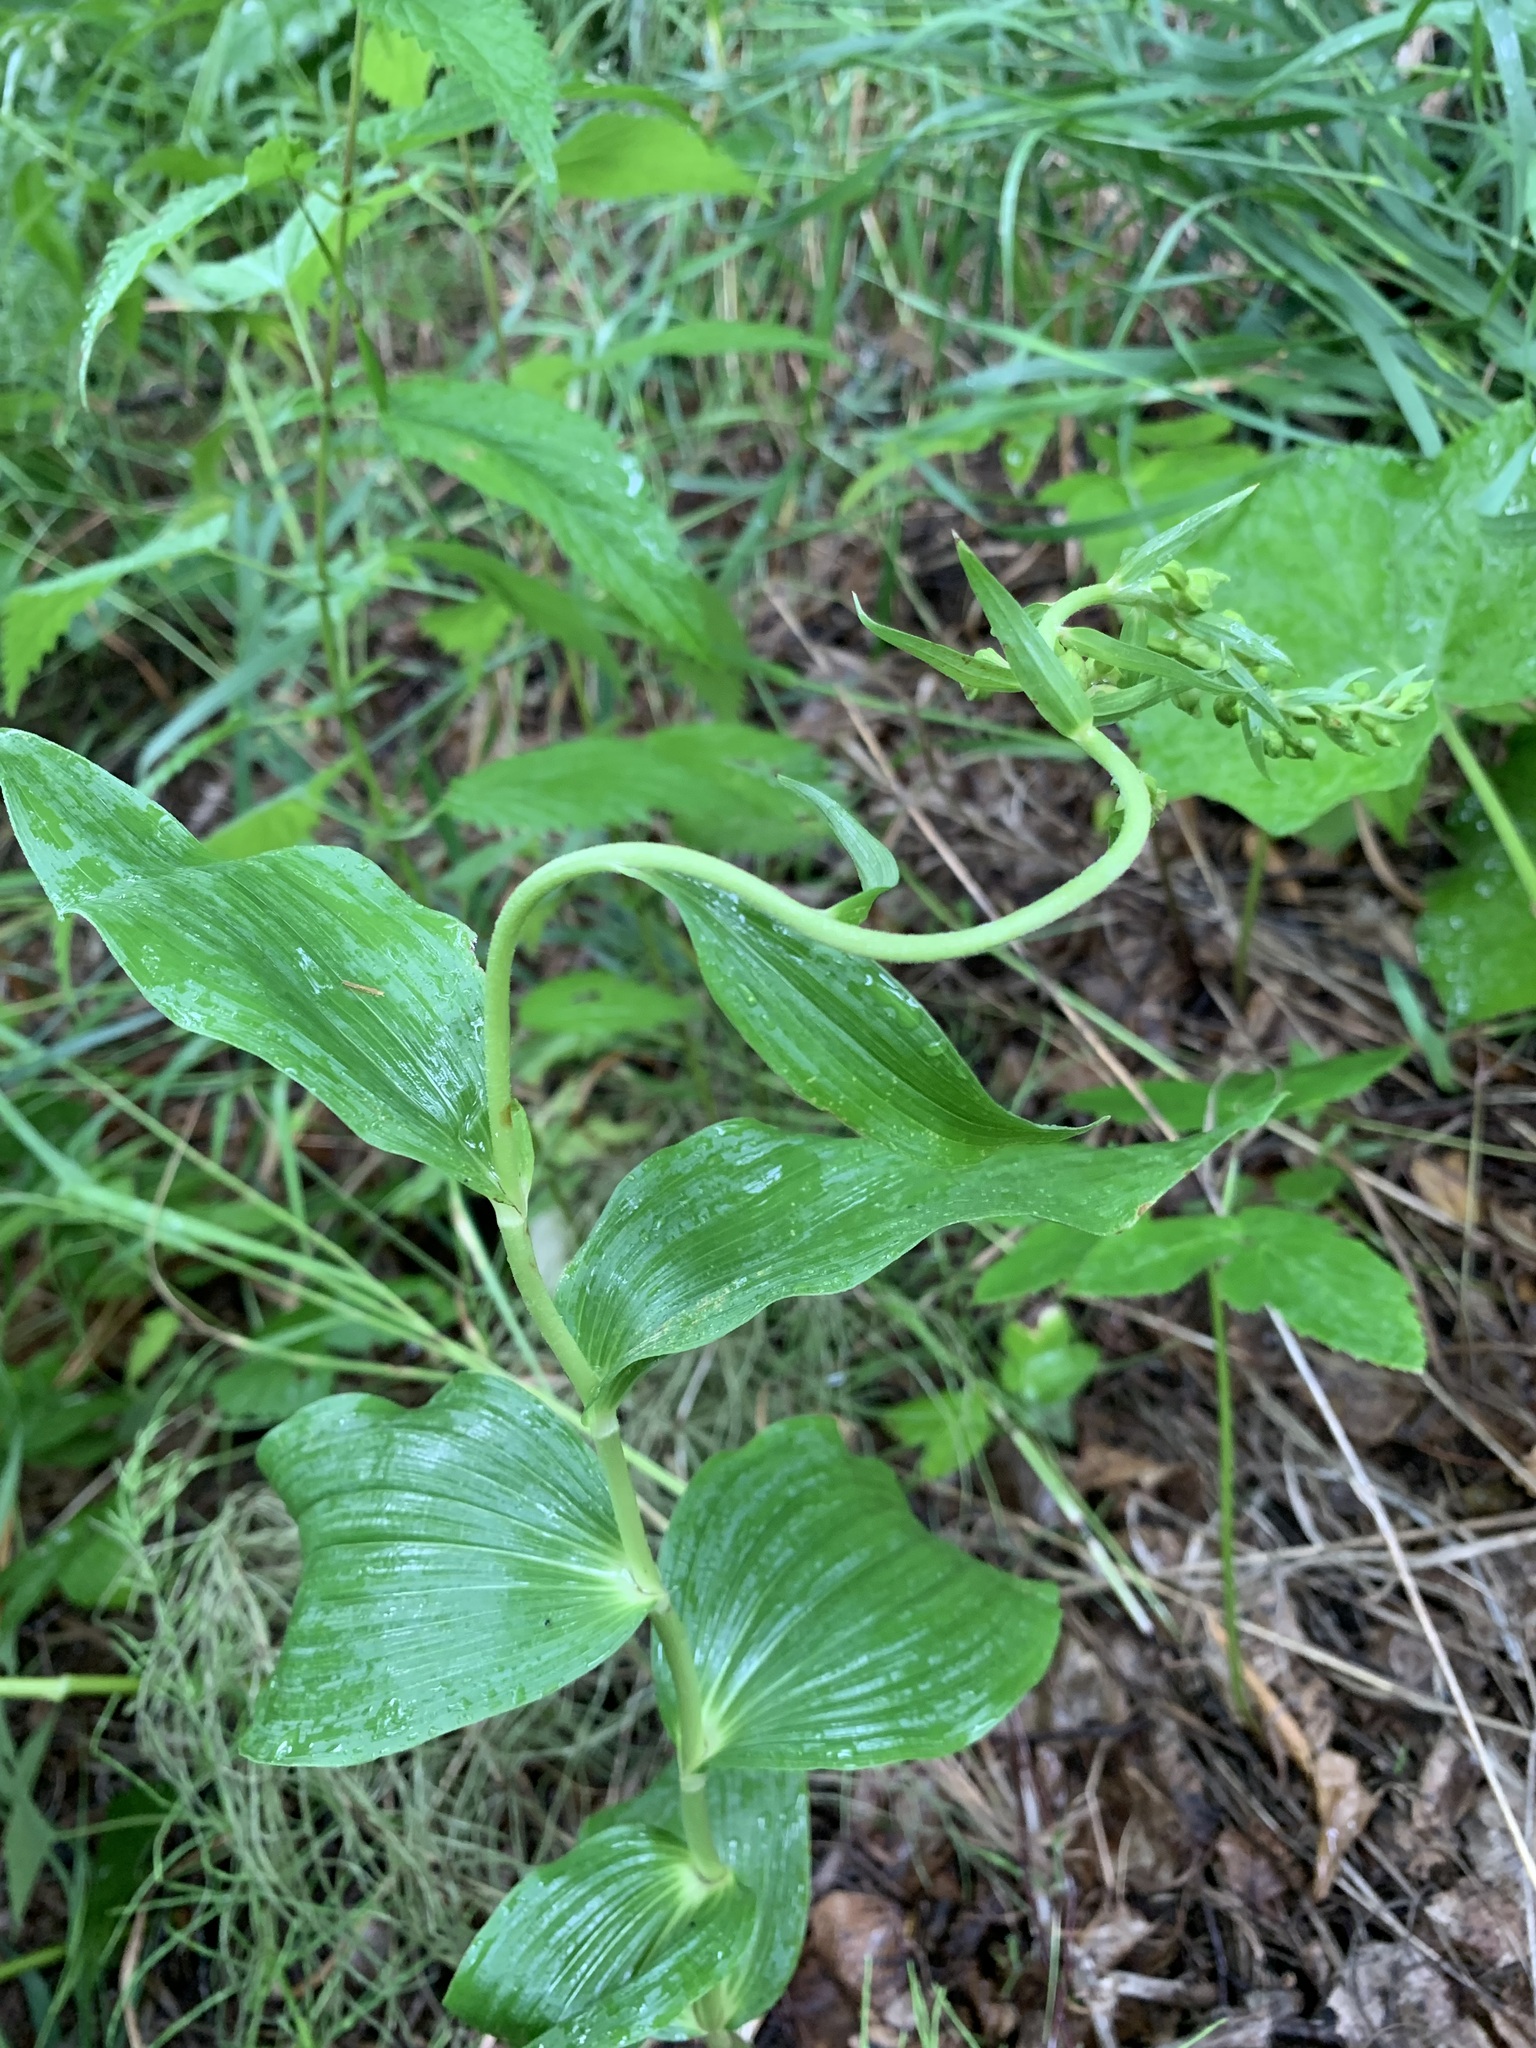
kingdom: Plantae
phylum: Tracheophyta
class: Liliopsida
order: Asparagales
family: Orchidaceae
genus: Epipactis
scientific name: Epipactis helleborine
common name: Broad-leaved helleborine
